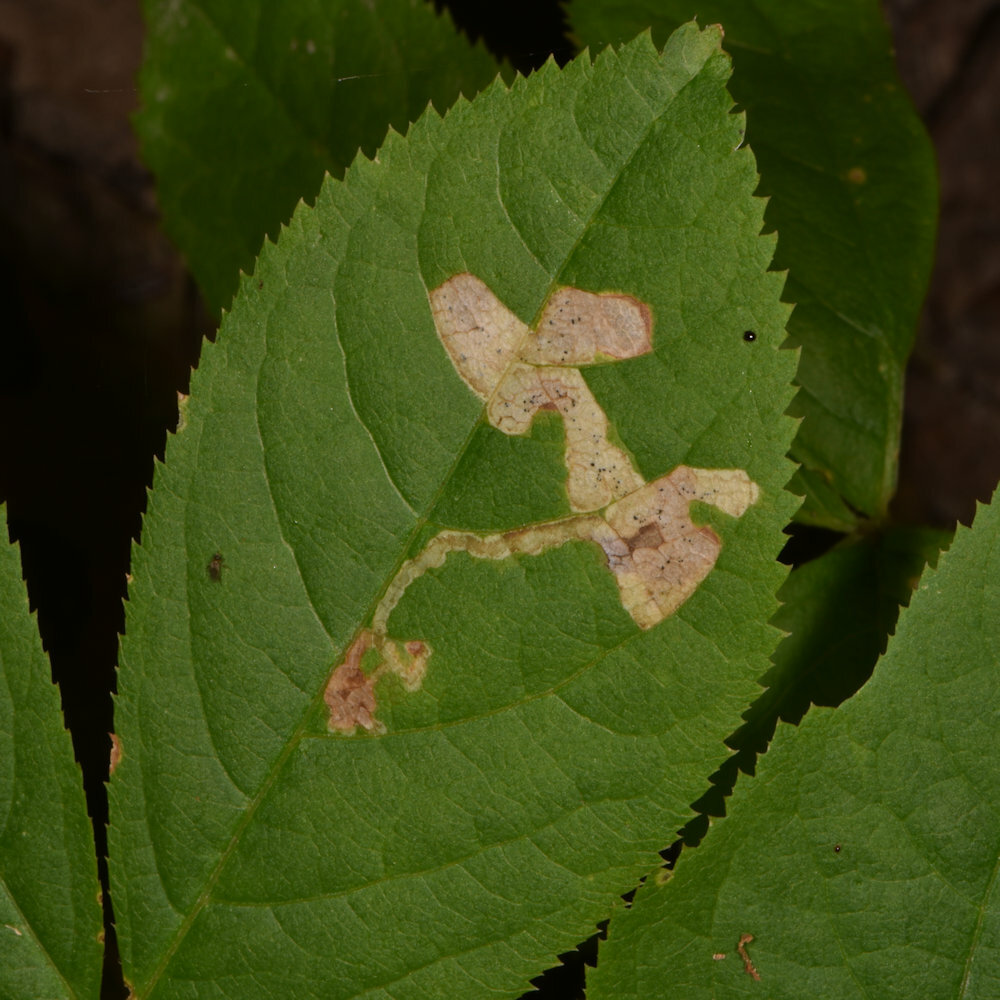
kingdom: Animalia
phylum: Arthropoda
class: Insecta
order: Diptera
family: Agromyzidae
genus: Phytomyza
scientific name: Phytomyza aralivora
